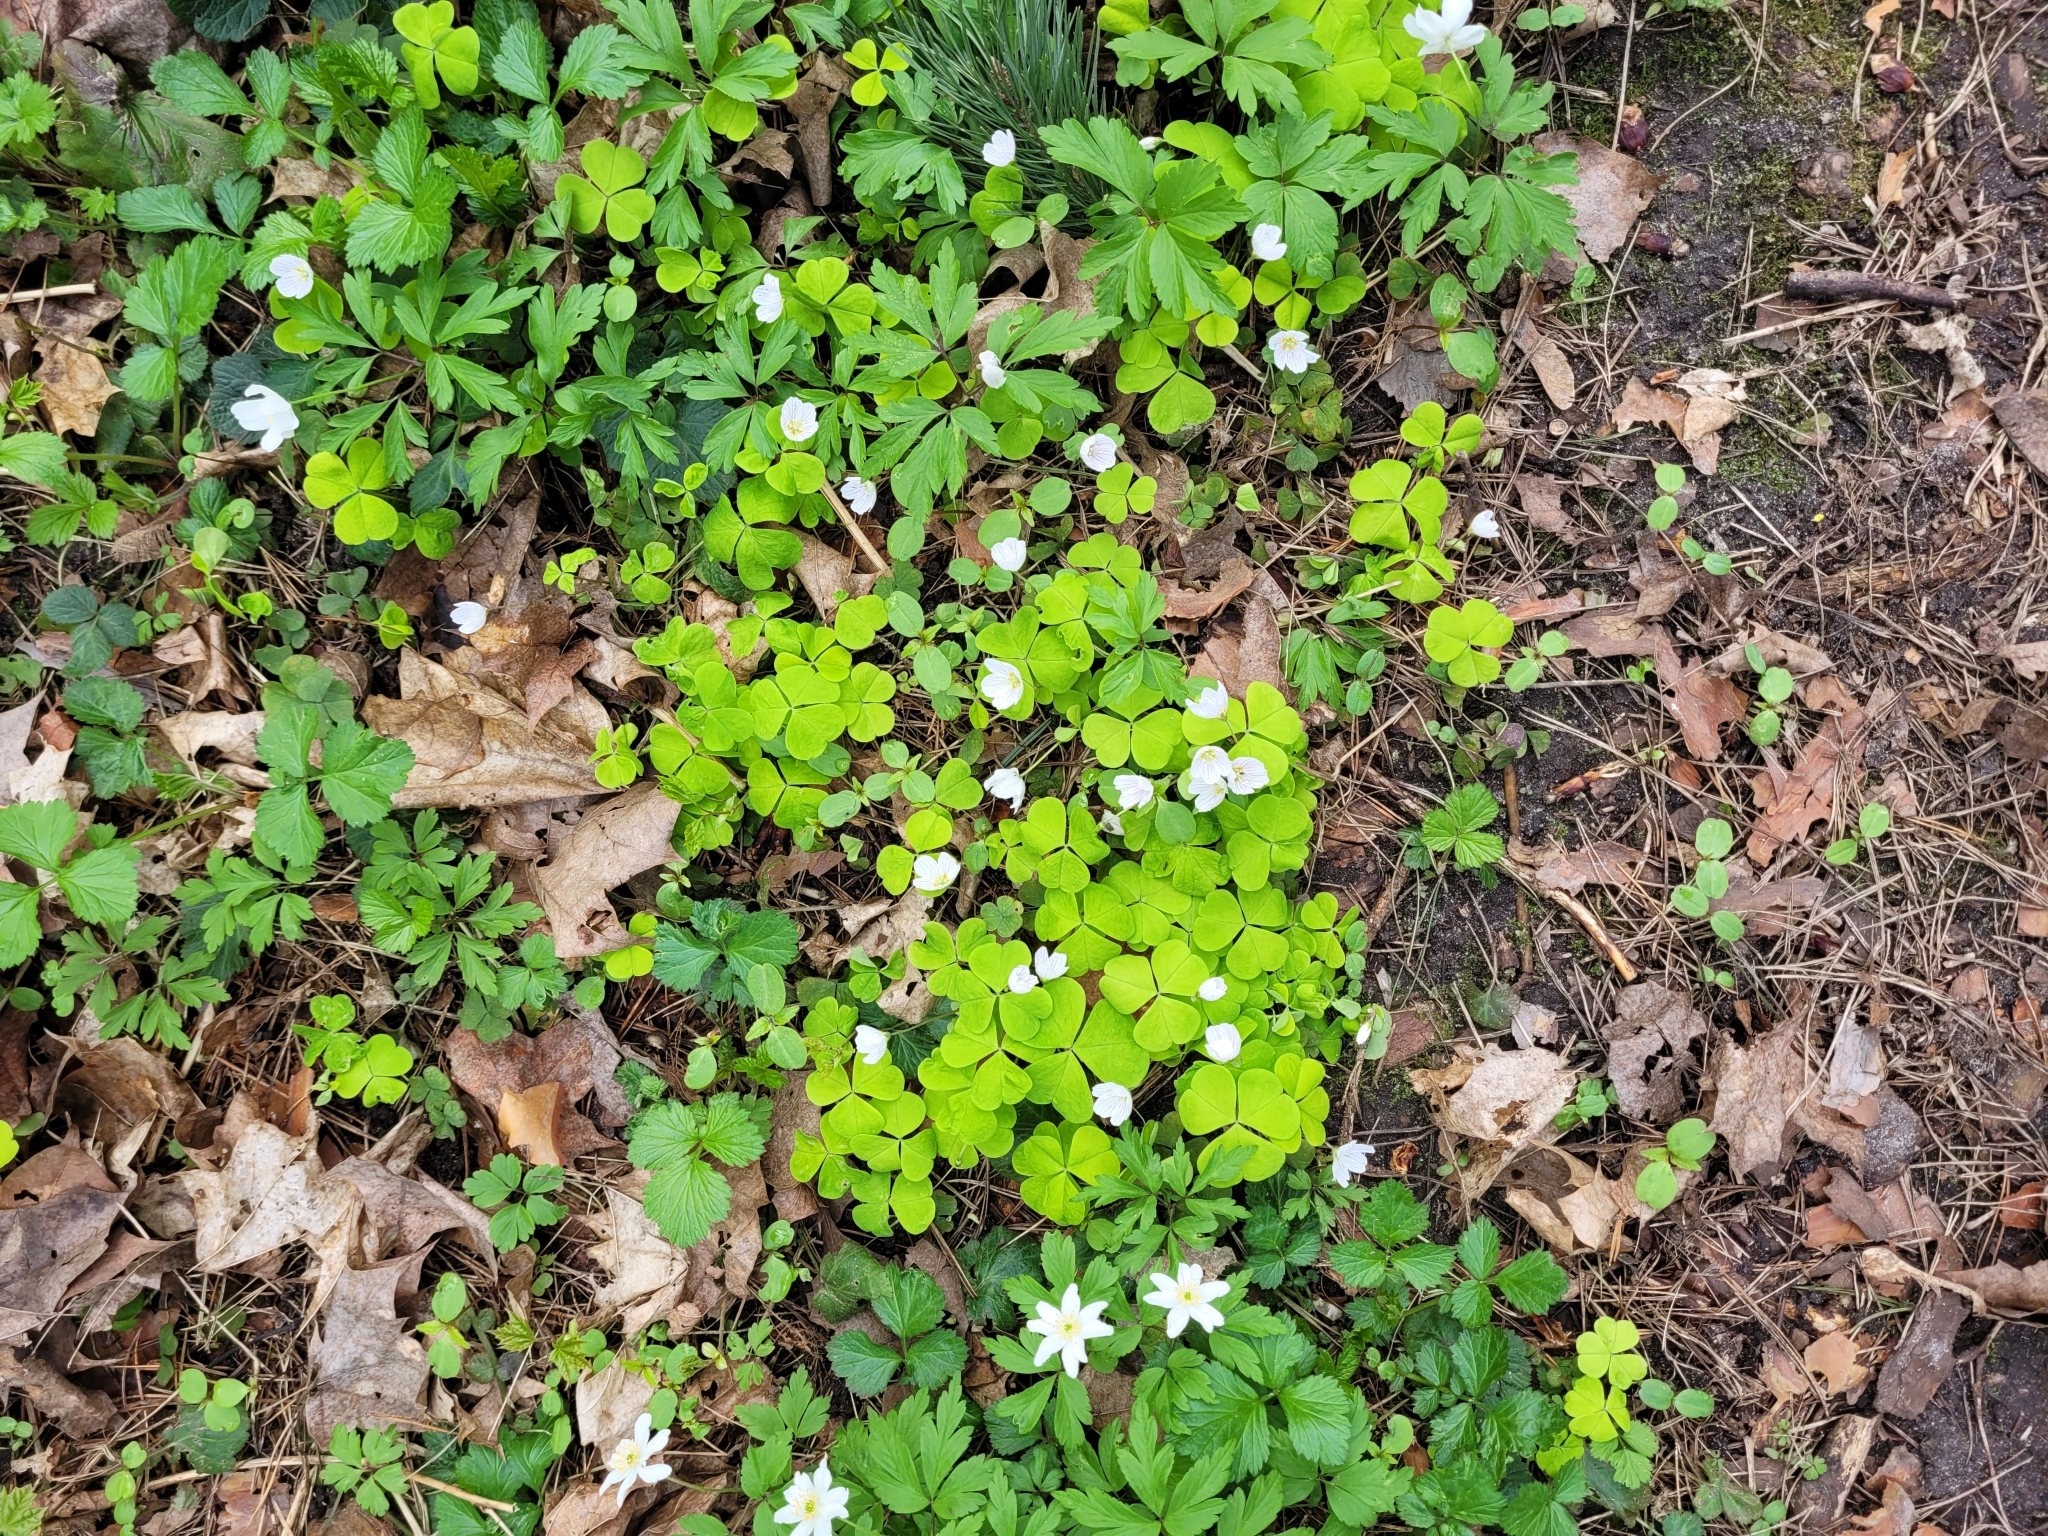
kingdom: Plantae
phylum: Tracheophyta
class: Magnoliopsida
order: Oxalidales
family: Oxalidaceae
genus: Oxalis
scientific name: Oxalis acetosella
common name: Wood-sorrel
